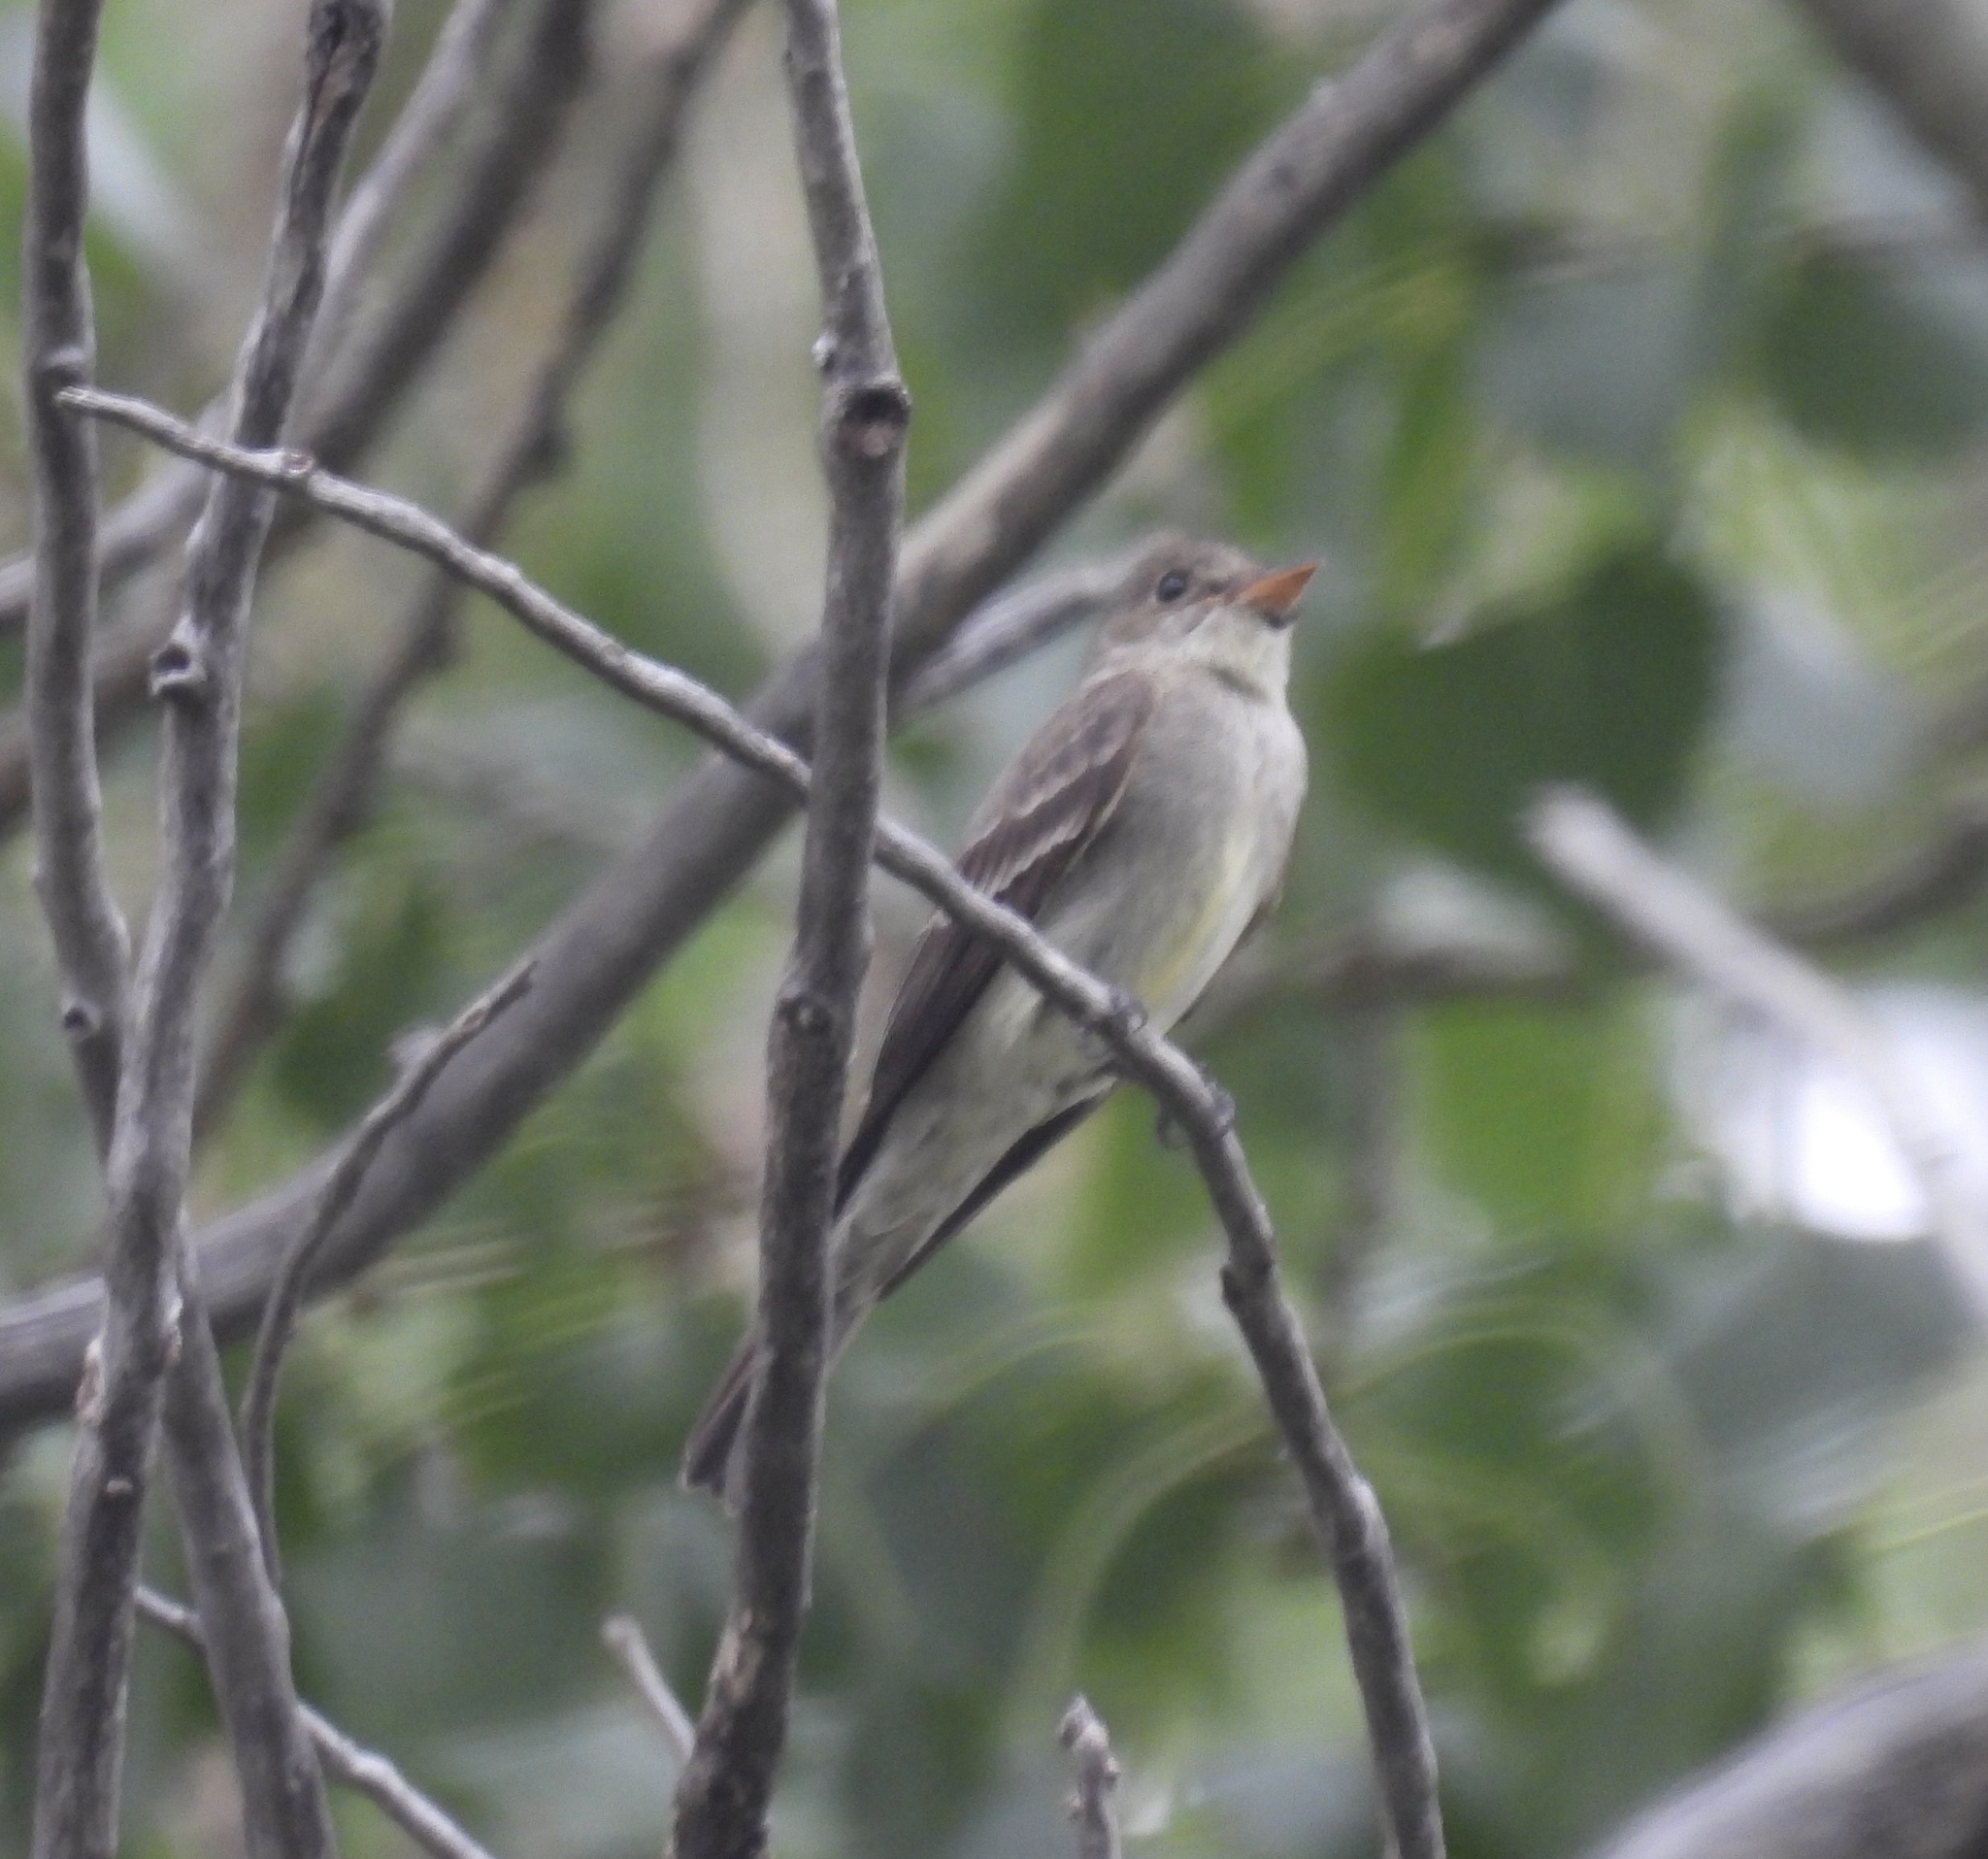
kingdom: Animalia
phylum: Chordata
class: Aves
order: Passeriformes
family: Tyrannidae
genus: Contopus
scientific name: Contopus virens
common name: Eastern wood-pewee
